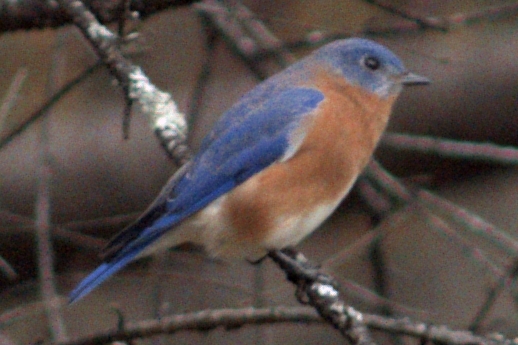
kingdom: Animalia
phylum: Chordata
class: Aves
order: Passeriformes
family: Turdidae
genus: Sialia
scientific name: Sialia sialis
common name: Eastern bluebird
